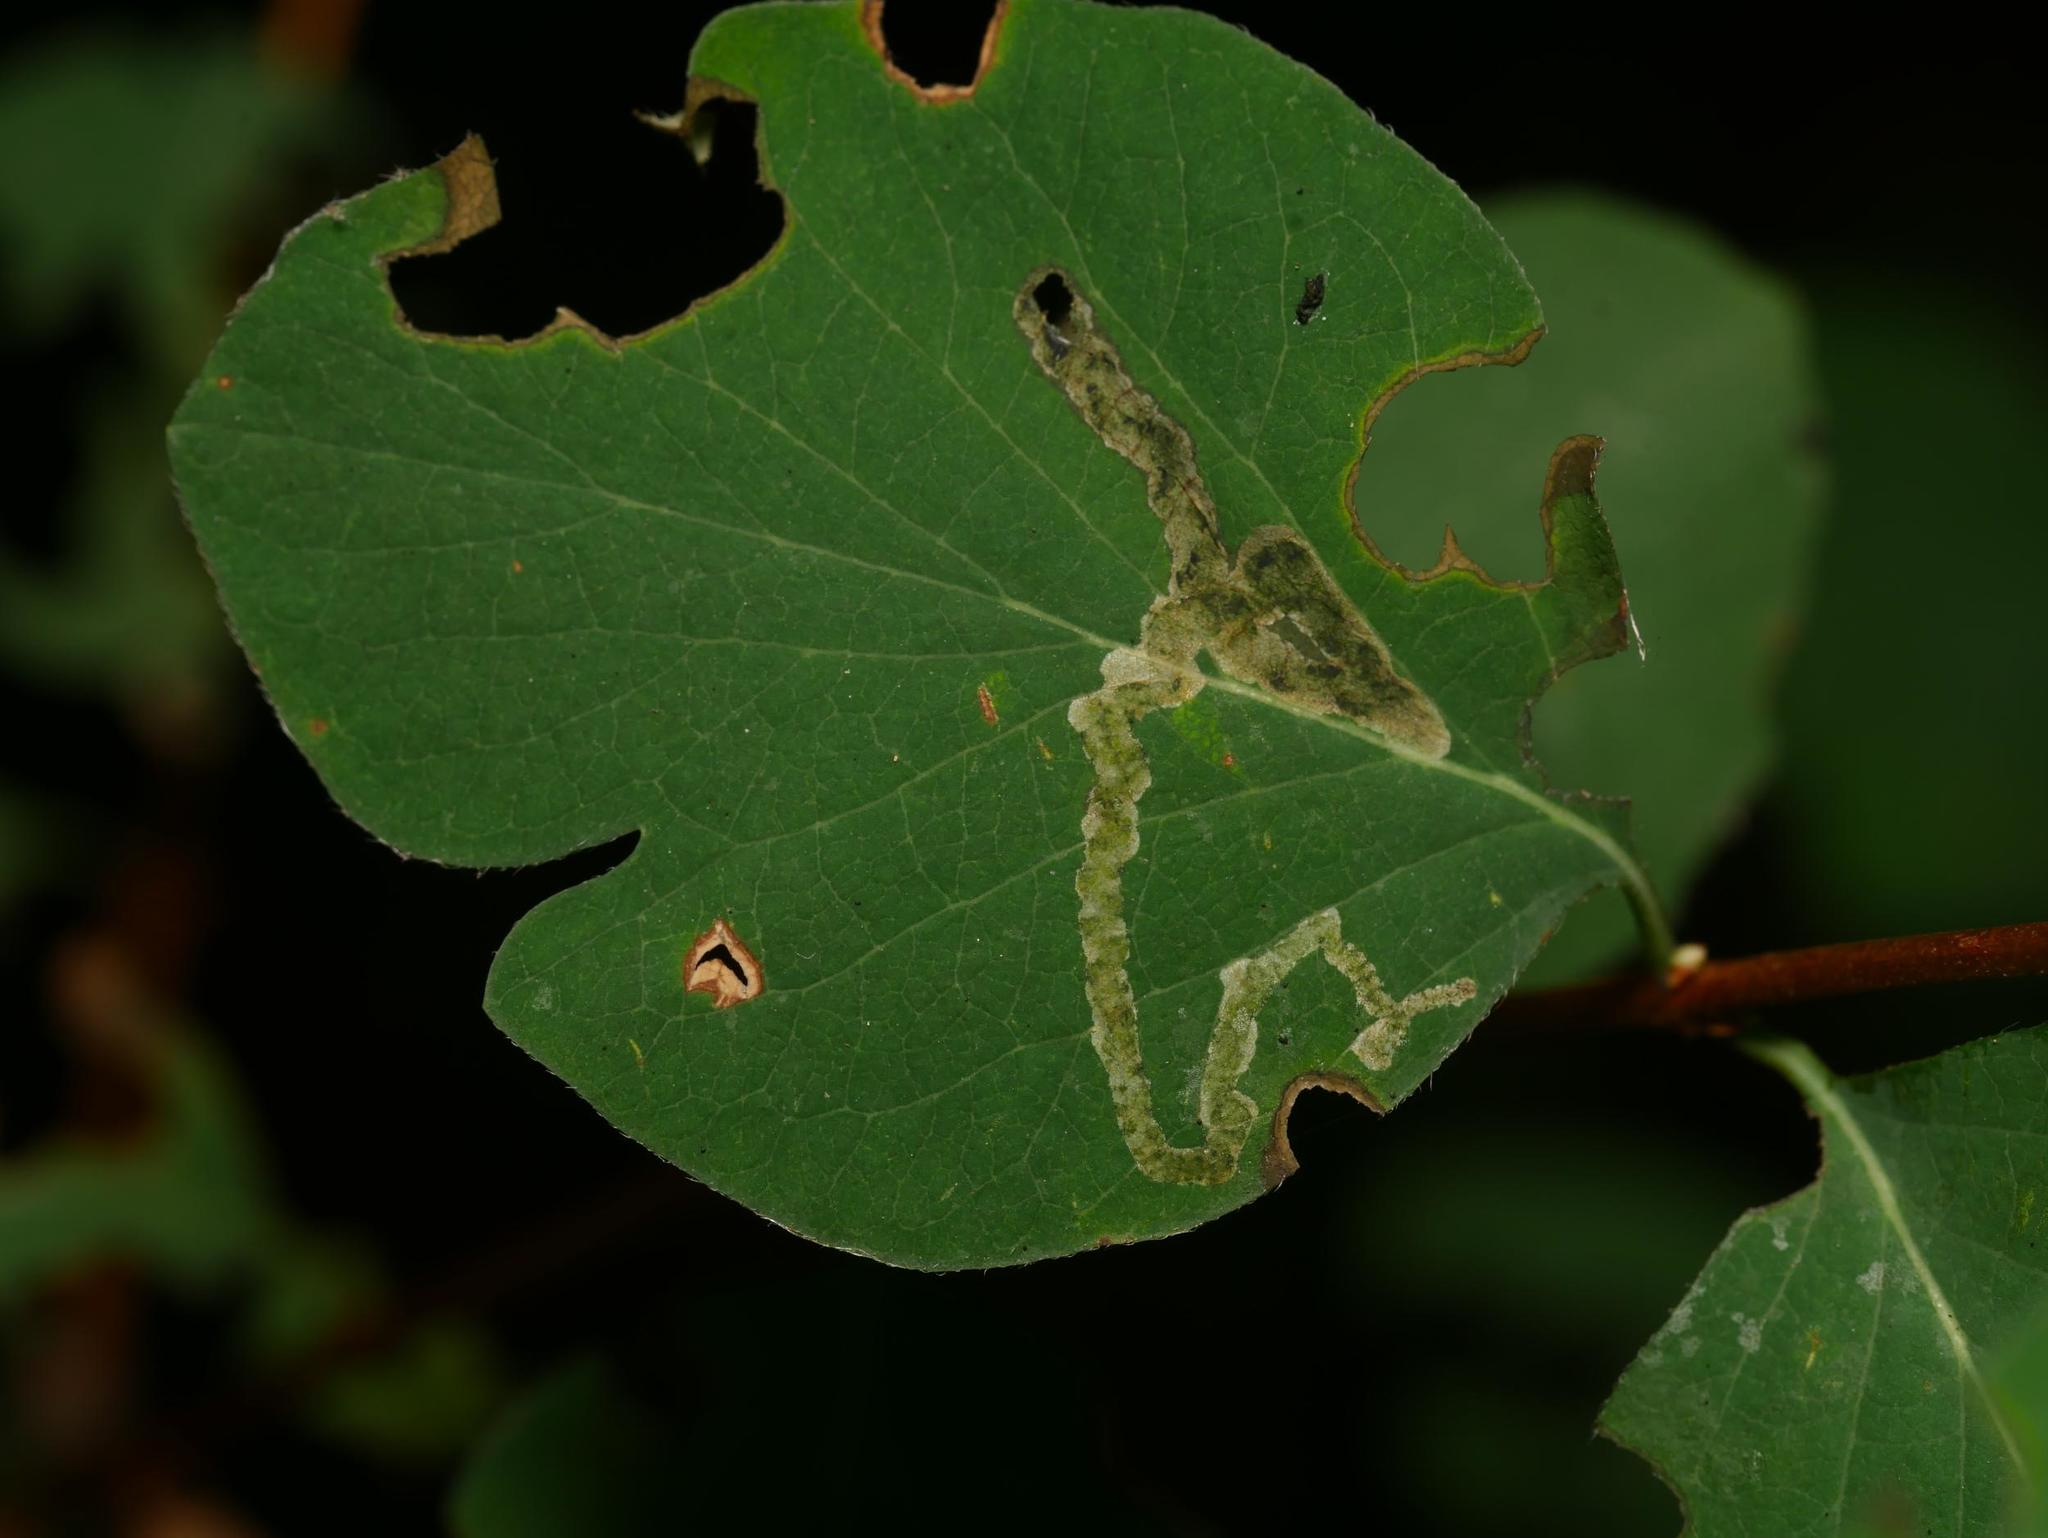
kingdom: Animalia
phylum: Arthropoda
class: Insecta
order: Diptera
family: Agromyzidae
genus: Aulagromyza
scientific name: Aulagromyza luteoscutellata
